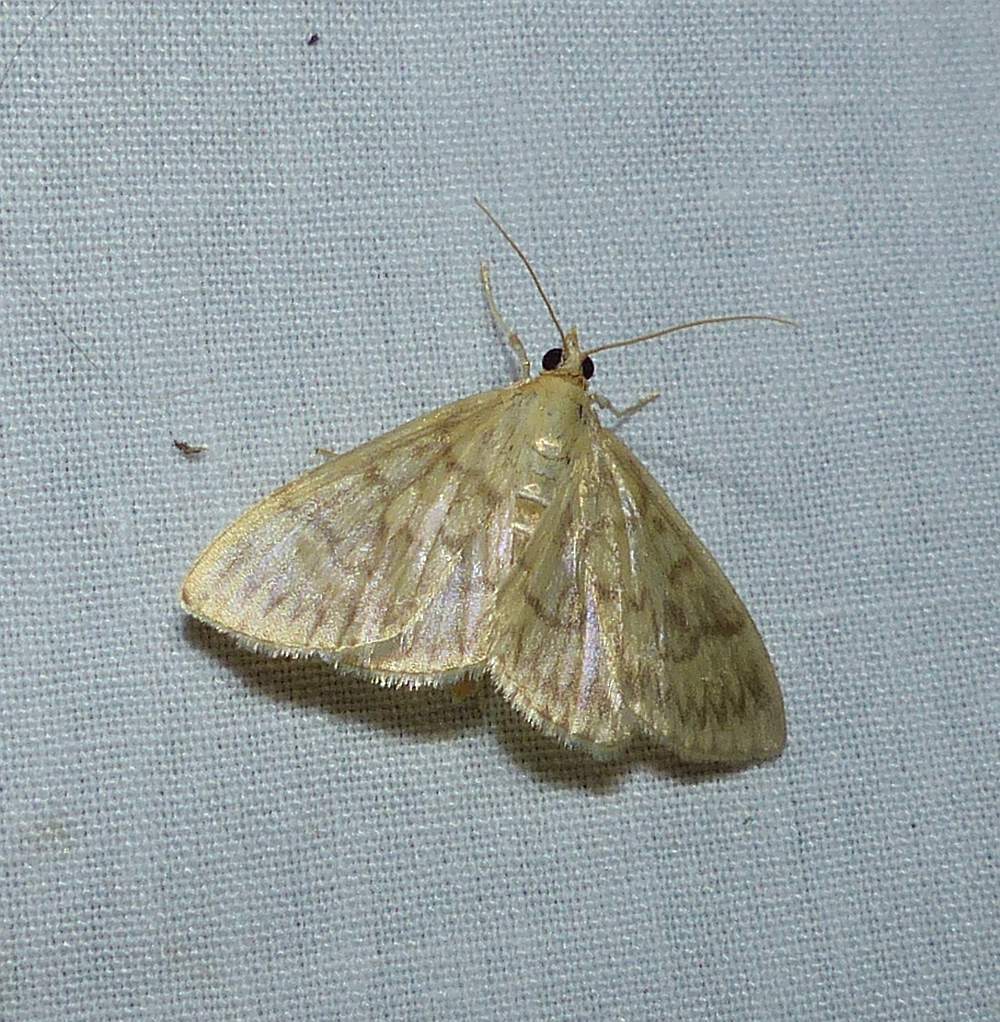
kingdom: Animalia
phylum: Arthropoda
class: Insecta
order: Lepidoptera
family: Crambidae
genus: Crocidophora
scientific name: Crocidophora serratissimalis
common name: Saw-toothed crocidophora moth
